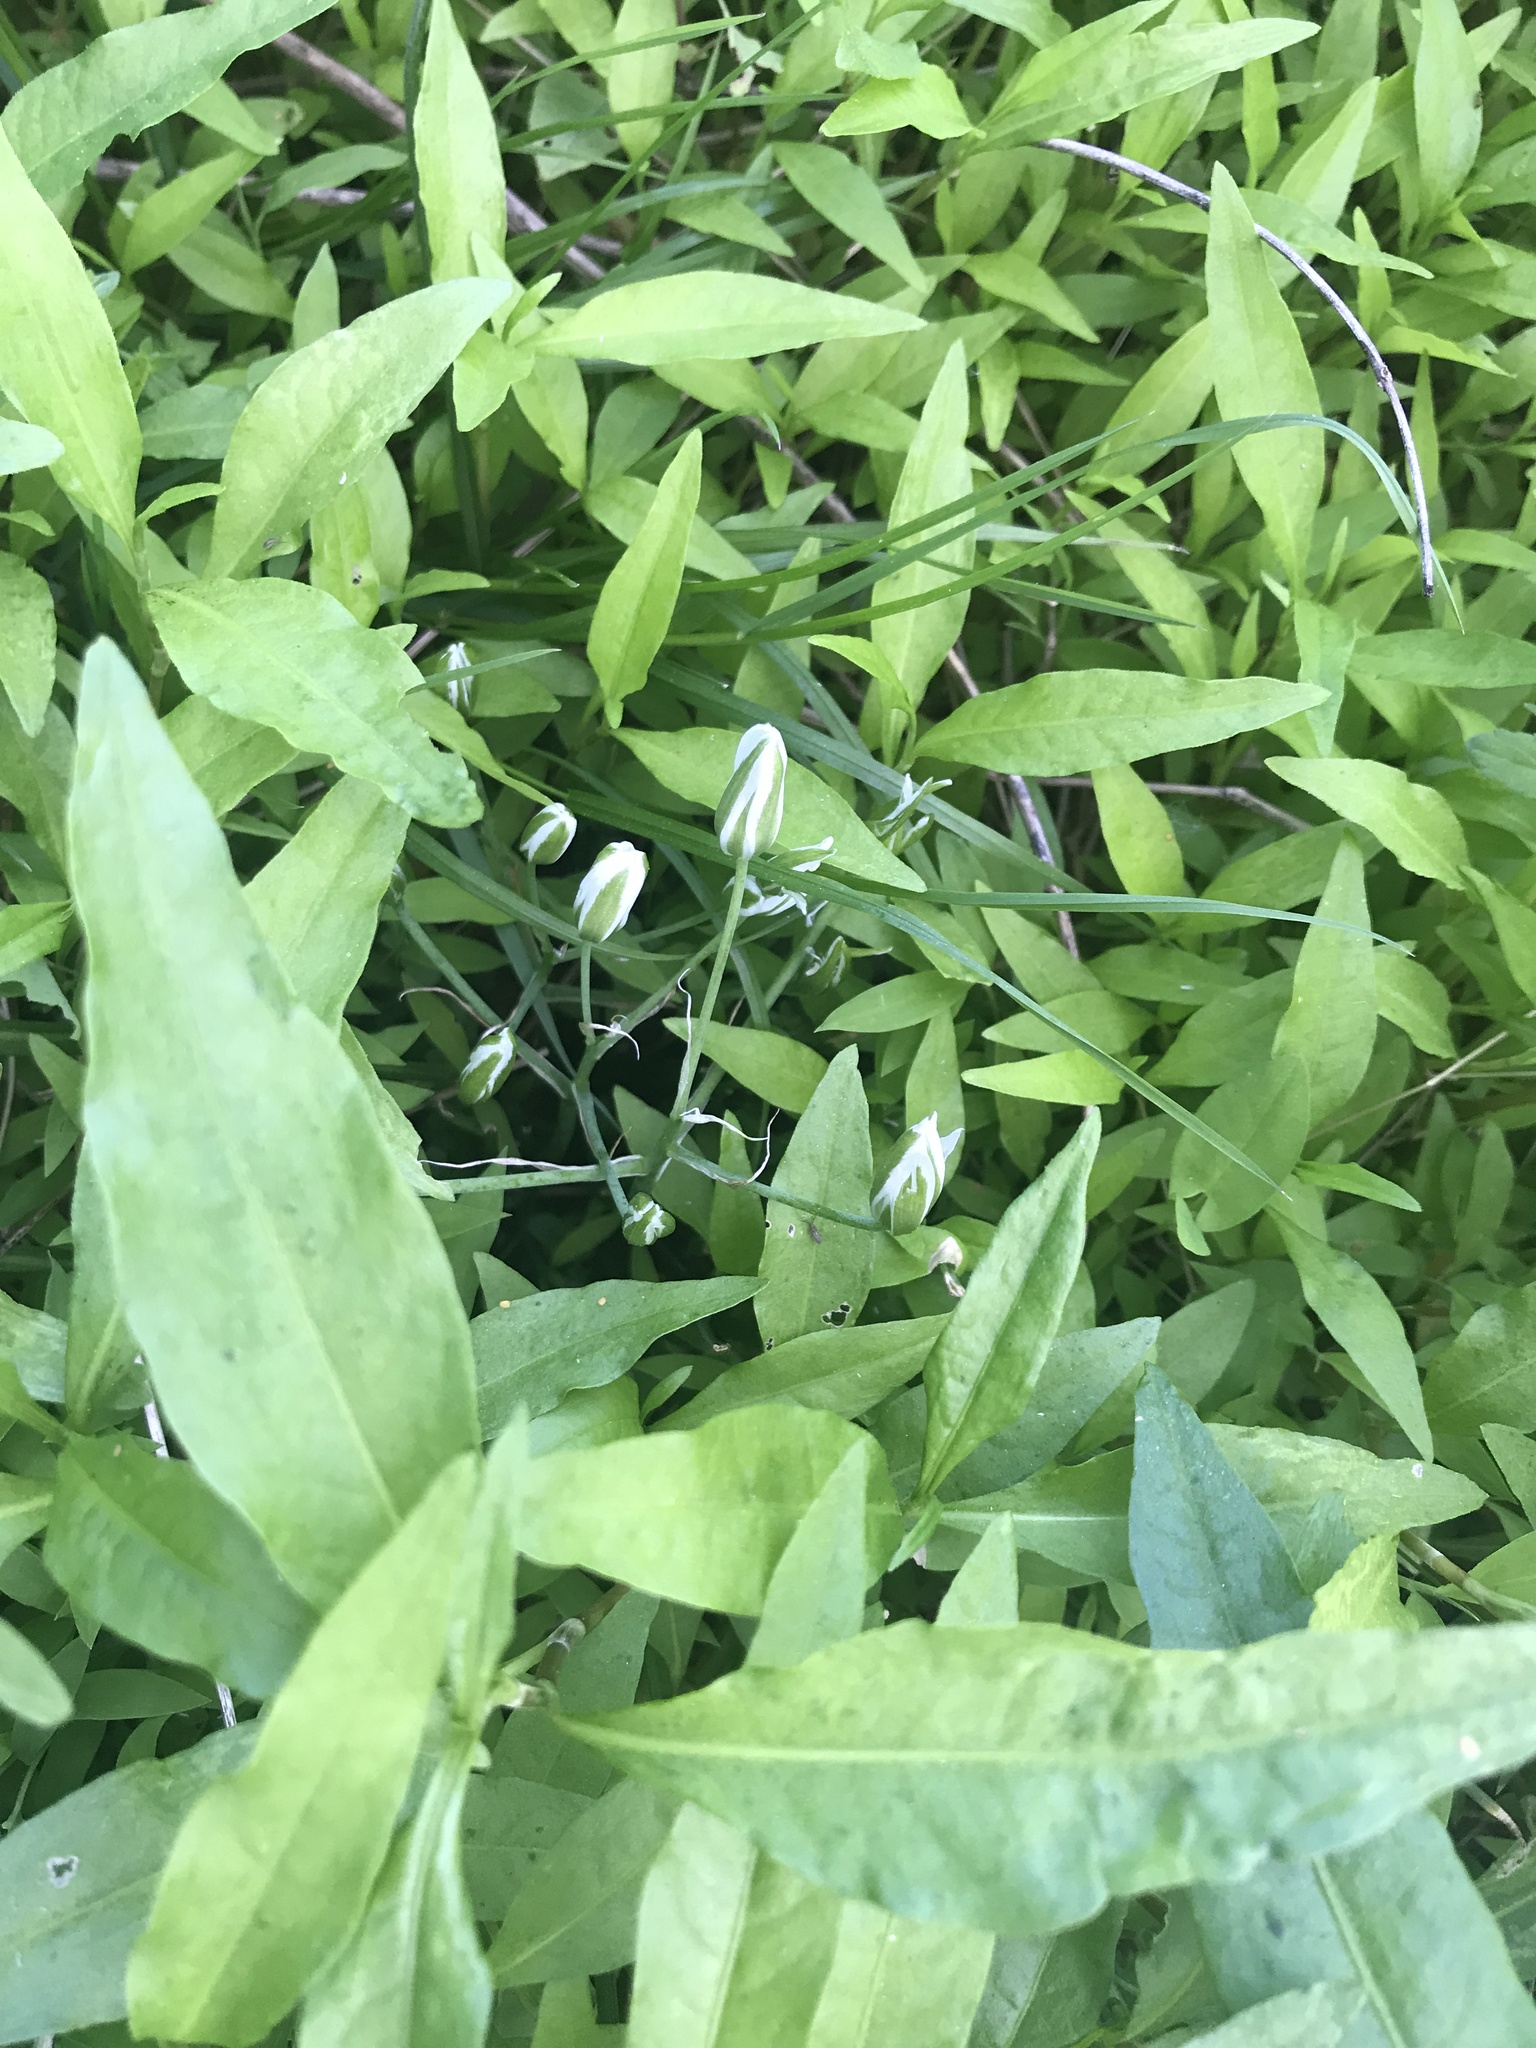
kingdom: Plantae
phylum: Tracheophyta
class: Liliopsida
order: Asparagales
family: Asparagaceae
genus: Ornithogalum
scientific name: Ornithogalum umbellatum
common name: Garden star-of-bethlehem
